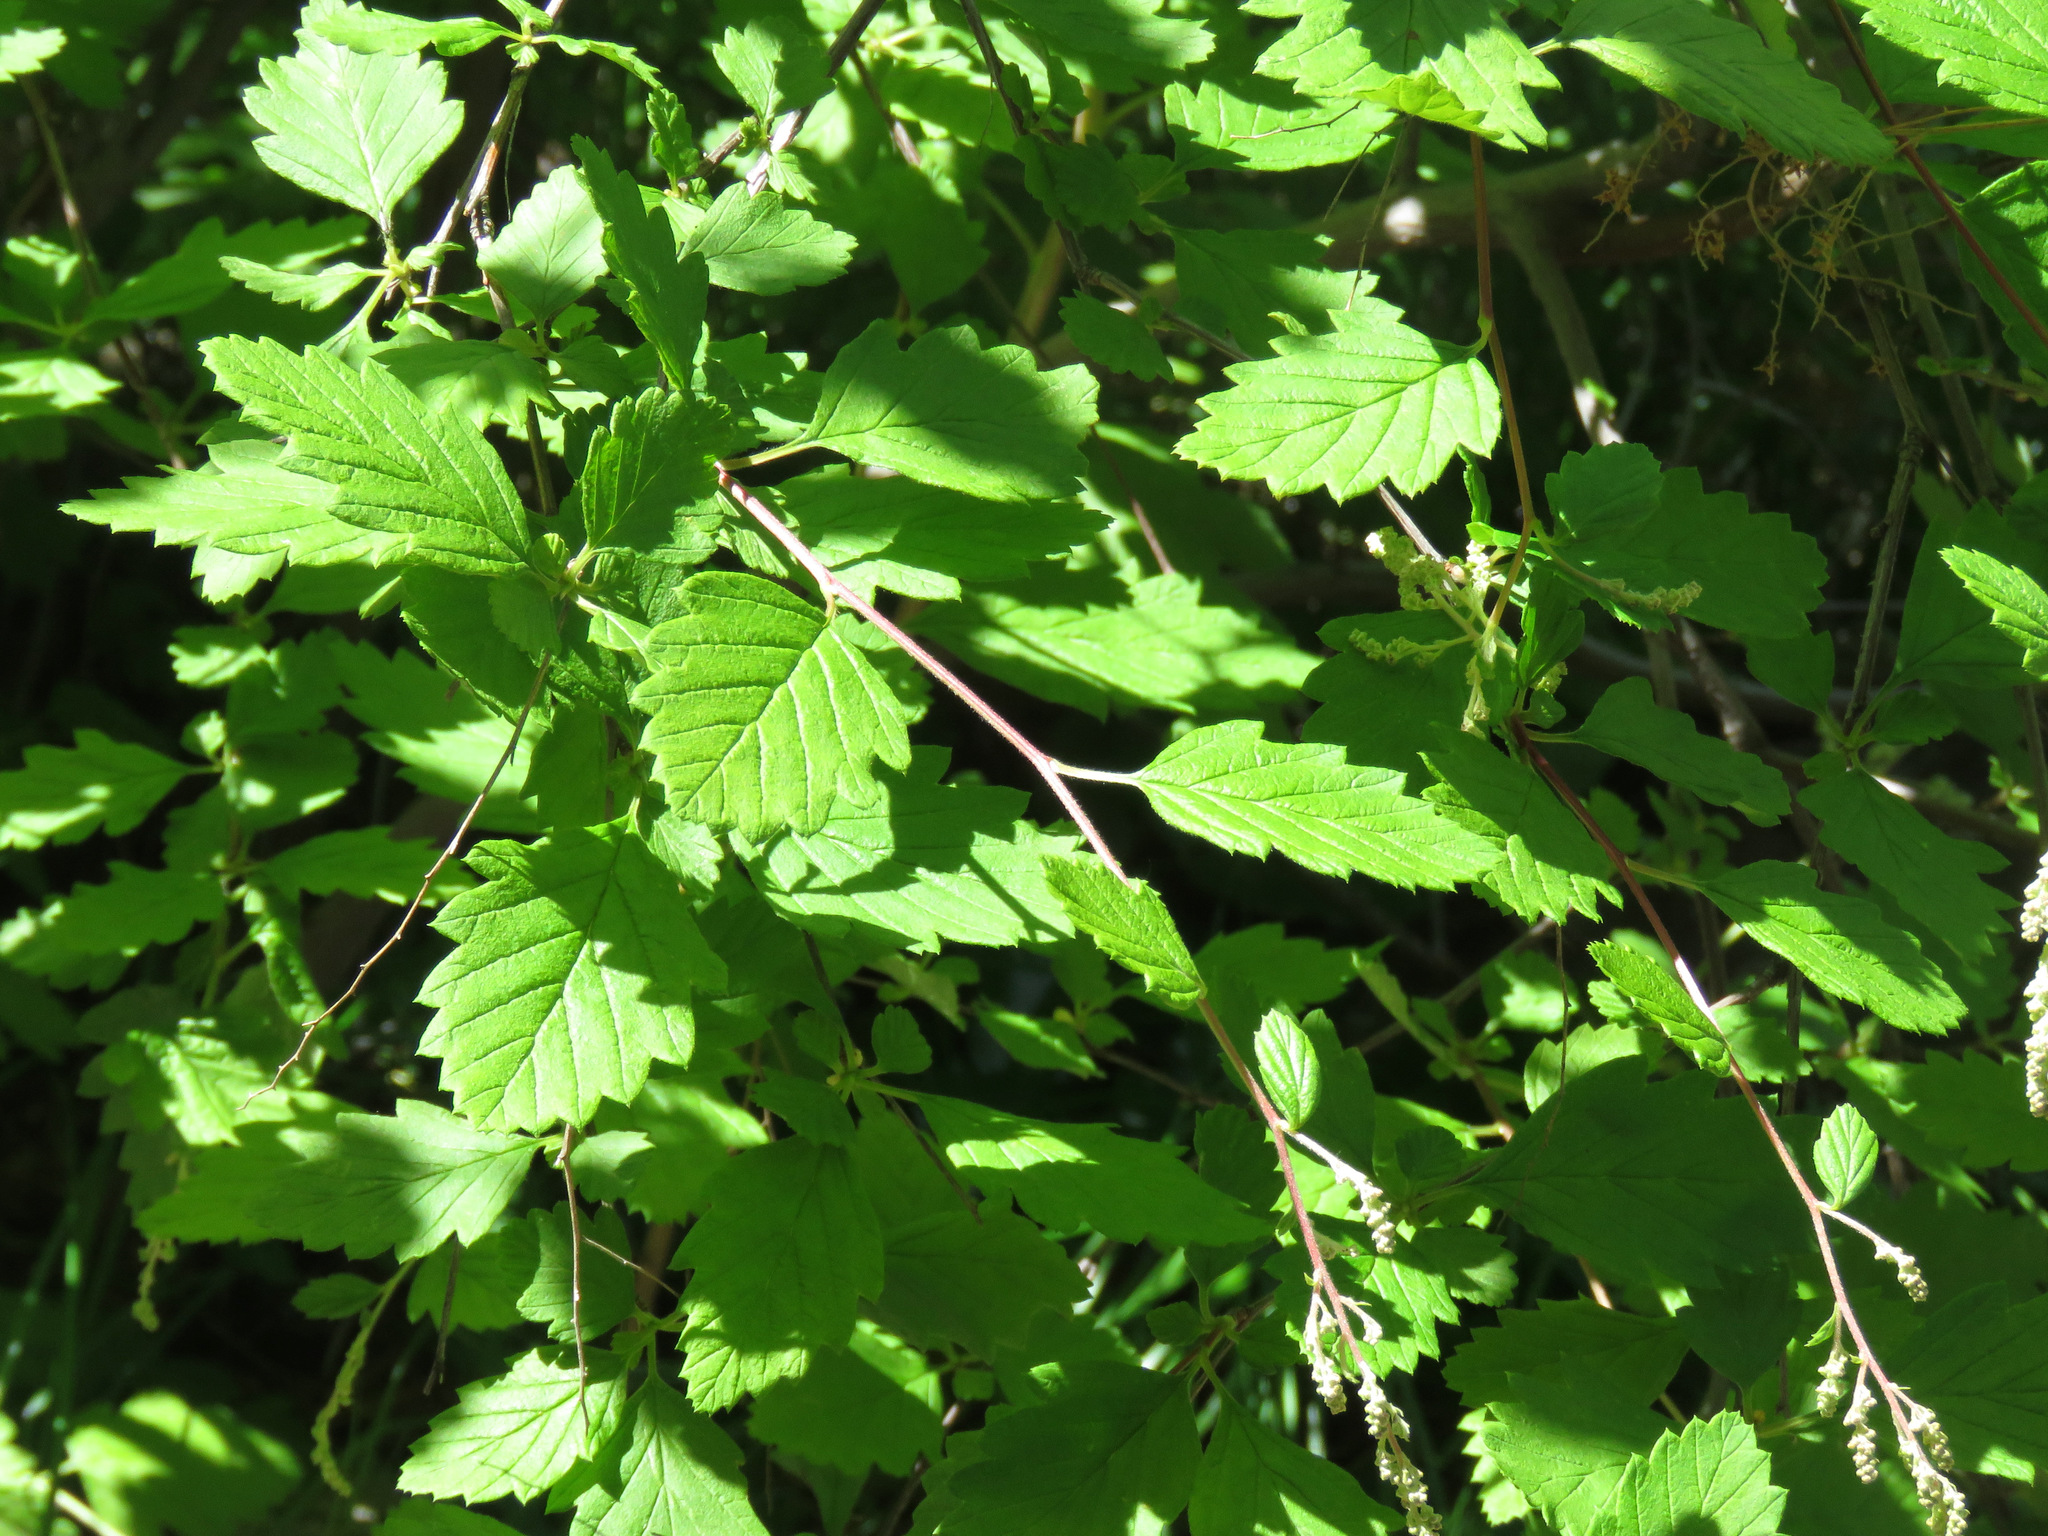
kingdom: Plantae
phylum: Tracheophyta
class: Magnoliopsida
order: Rosales
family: Rosaceae
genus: Holodiscus
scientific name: Holodiscus discolor
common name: Oceanspray
